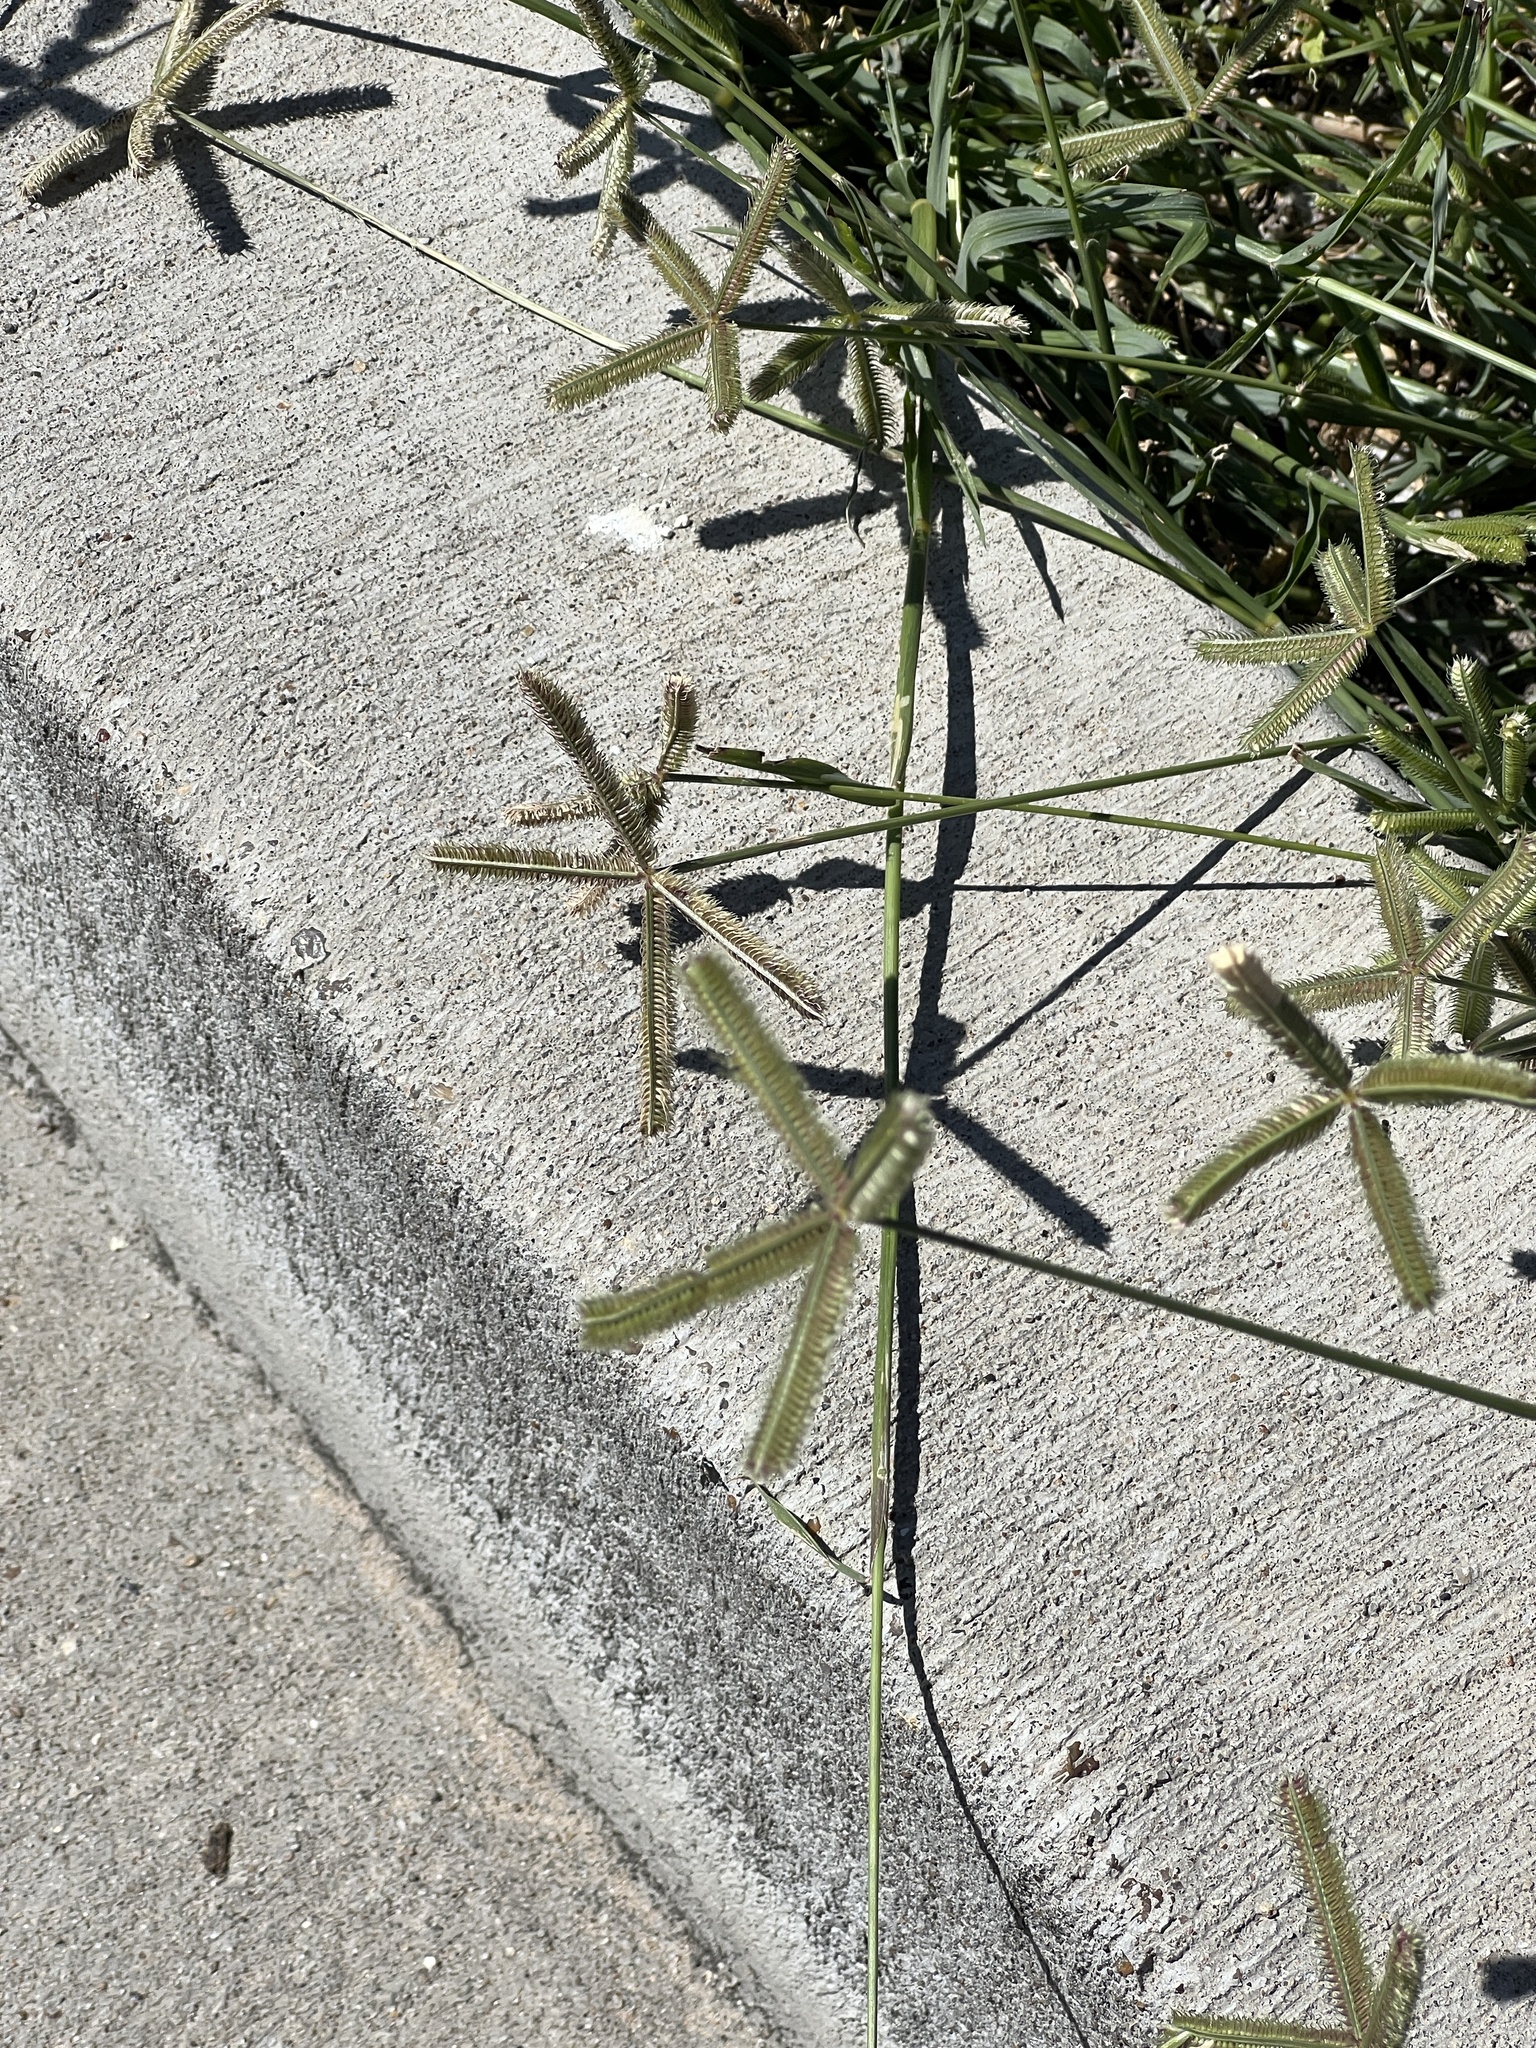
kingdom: Plantae
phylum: Tracheophyta
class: Liliopsida
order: Poales
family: Poaceae
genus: Dactyloctenium
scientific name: Dactyloctenium aegyptium
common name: Egyptian grass
